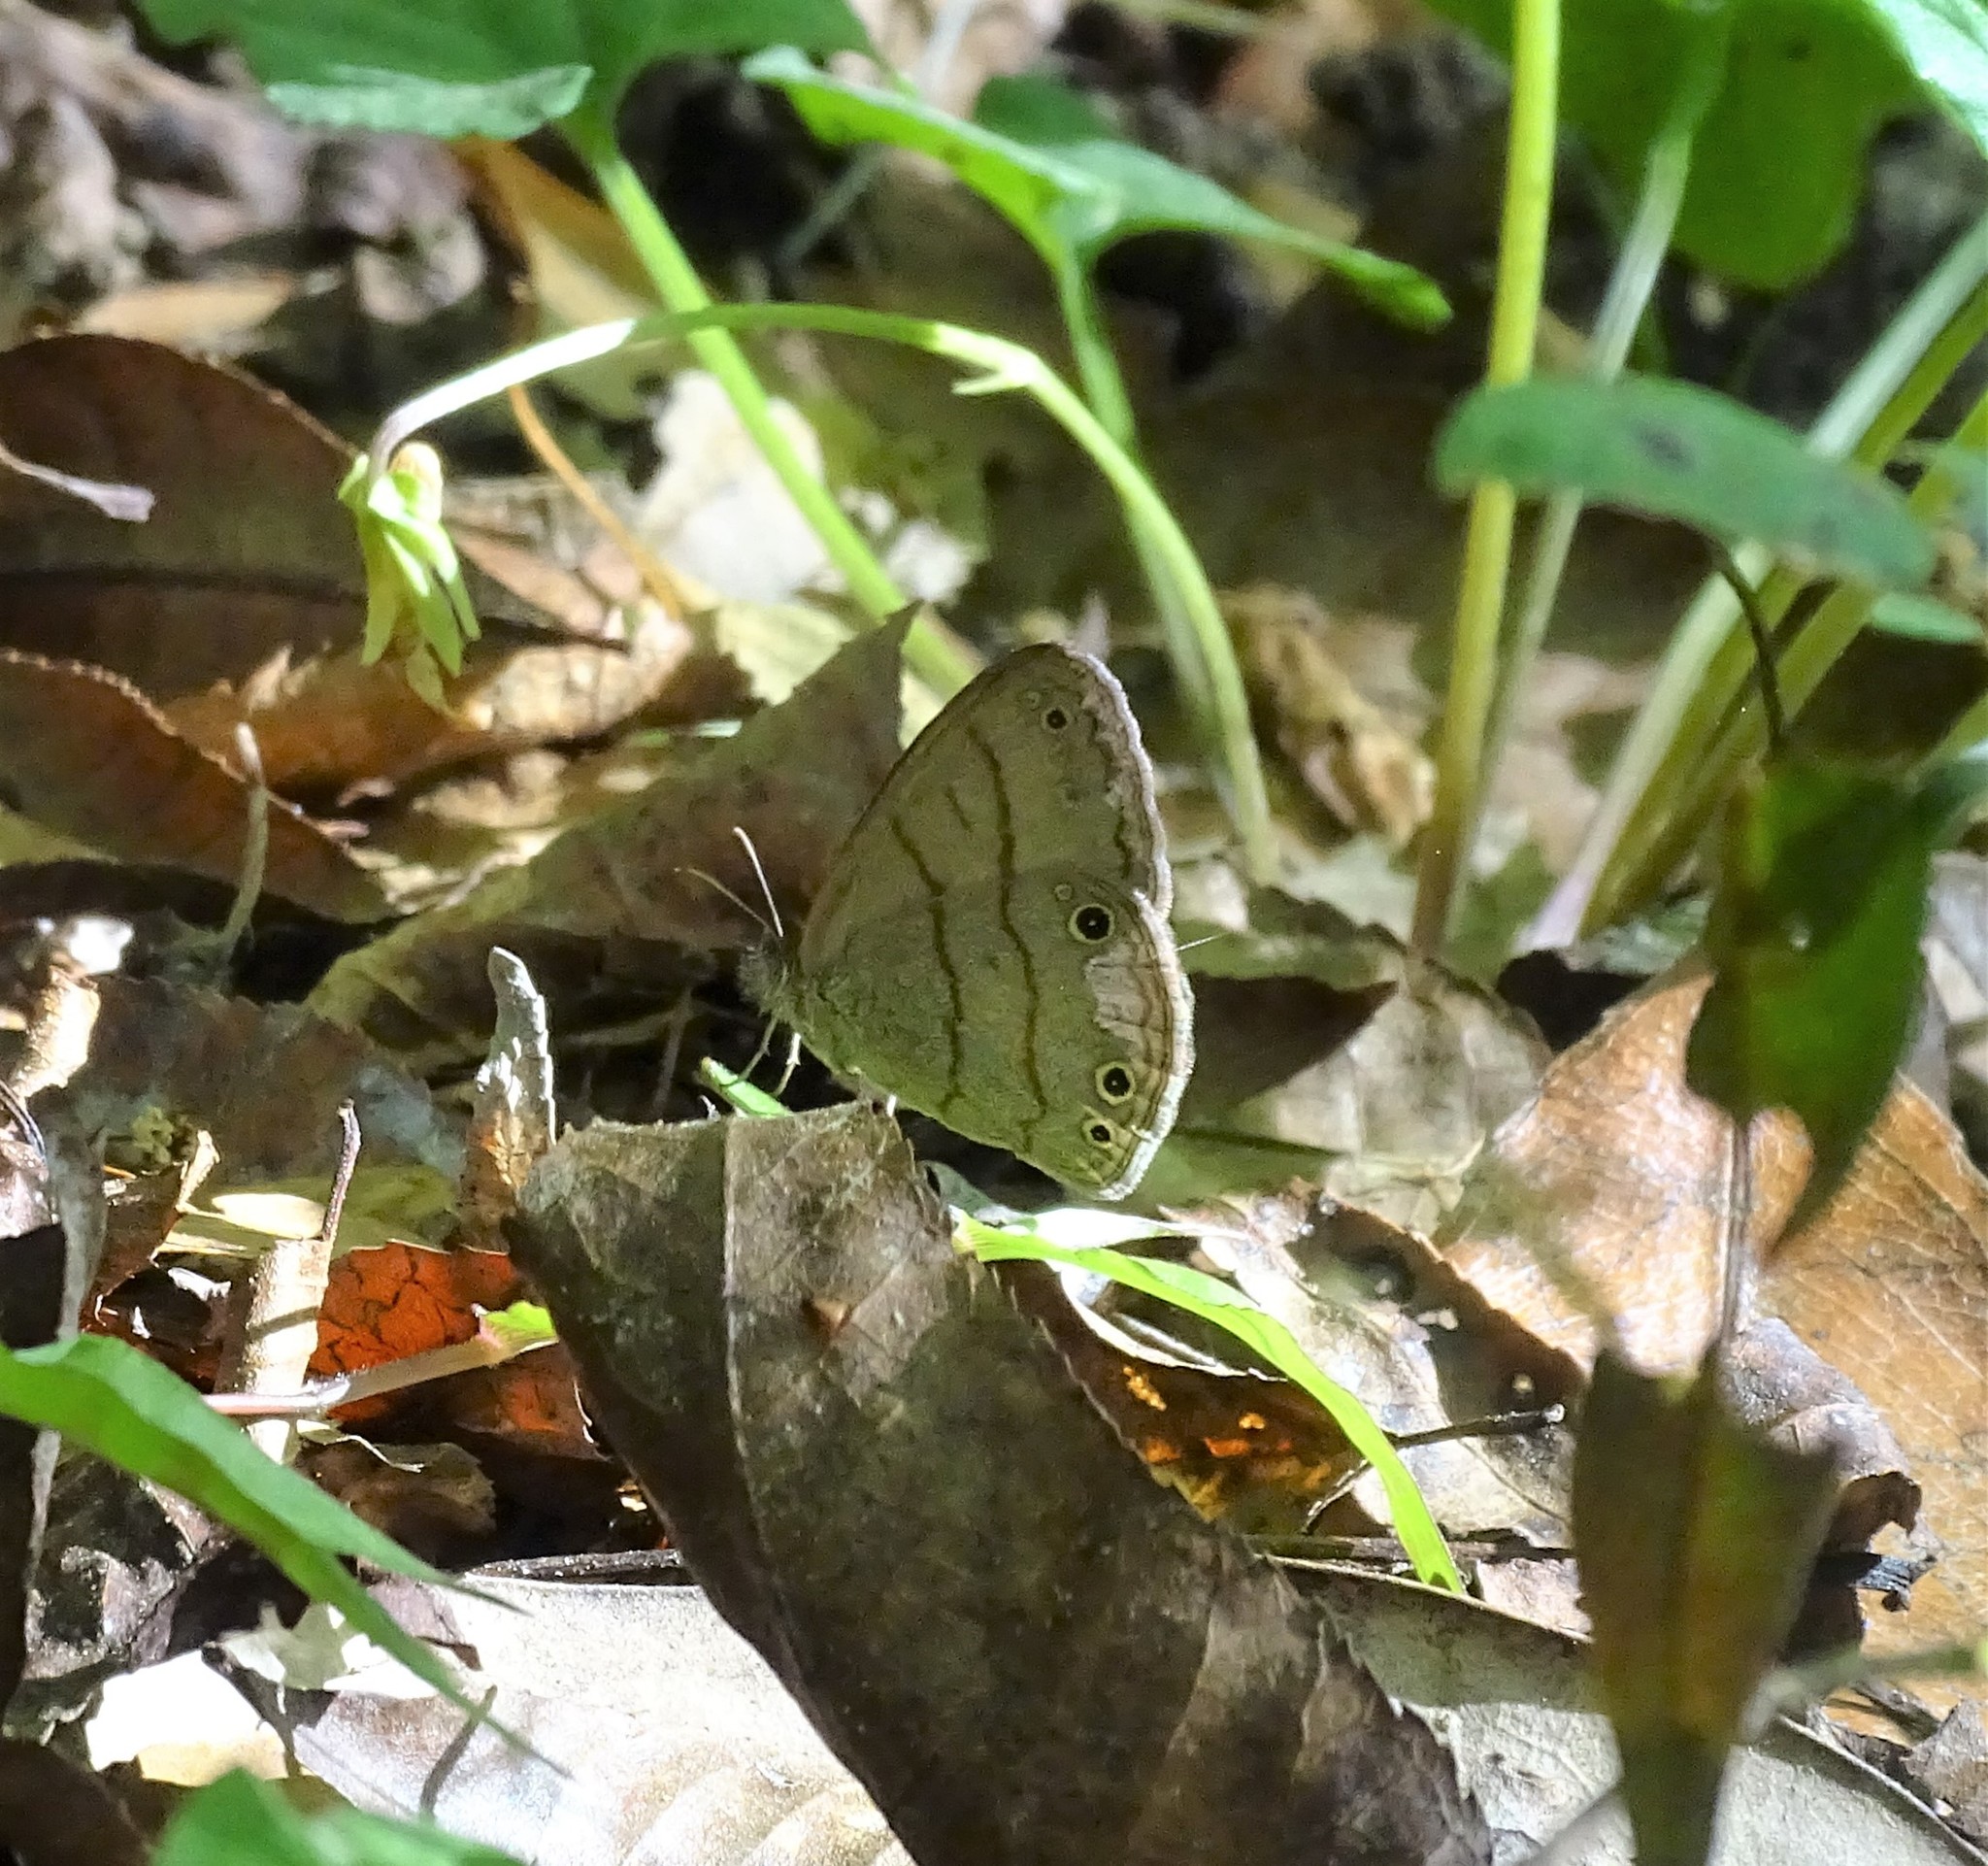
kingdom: Animalia
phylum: Arthropoda
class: Insecta
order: Lepidoptera
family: Nymphalidae
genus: Hermeuptychia
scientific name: Hermeuptychia hermes
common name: Hermes satyr
